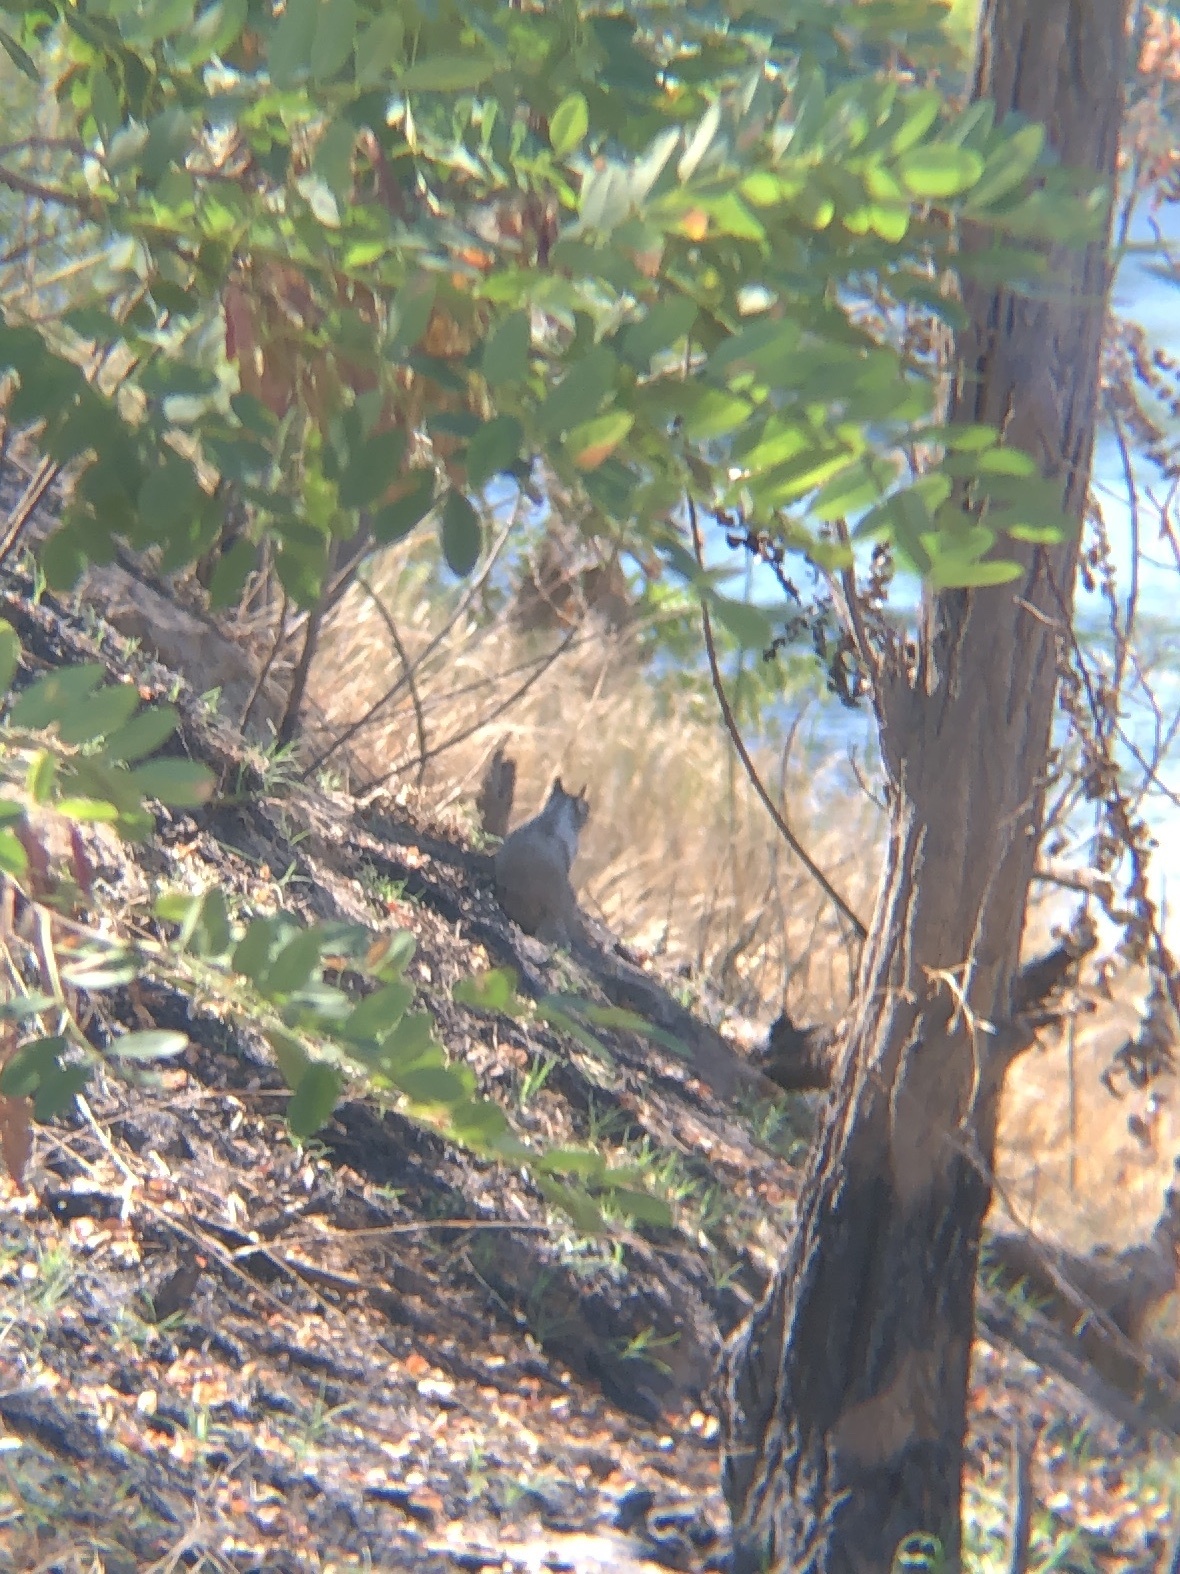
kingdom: Animalia
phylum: Chordata
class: Mammalia
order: Rodentia
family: Sciuridae
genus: Otospermophilus
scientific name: Otospermophilus beecheyi
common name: California ground squirrel
